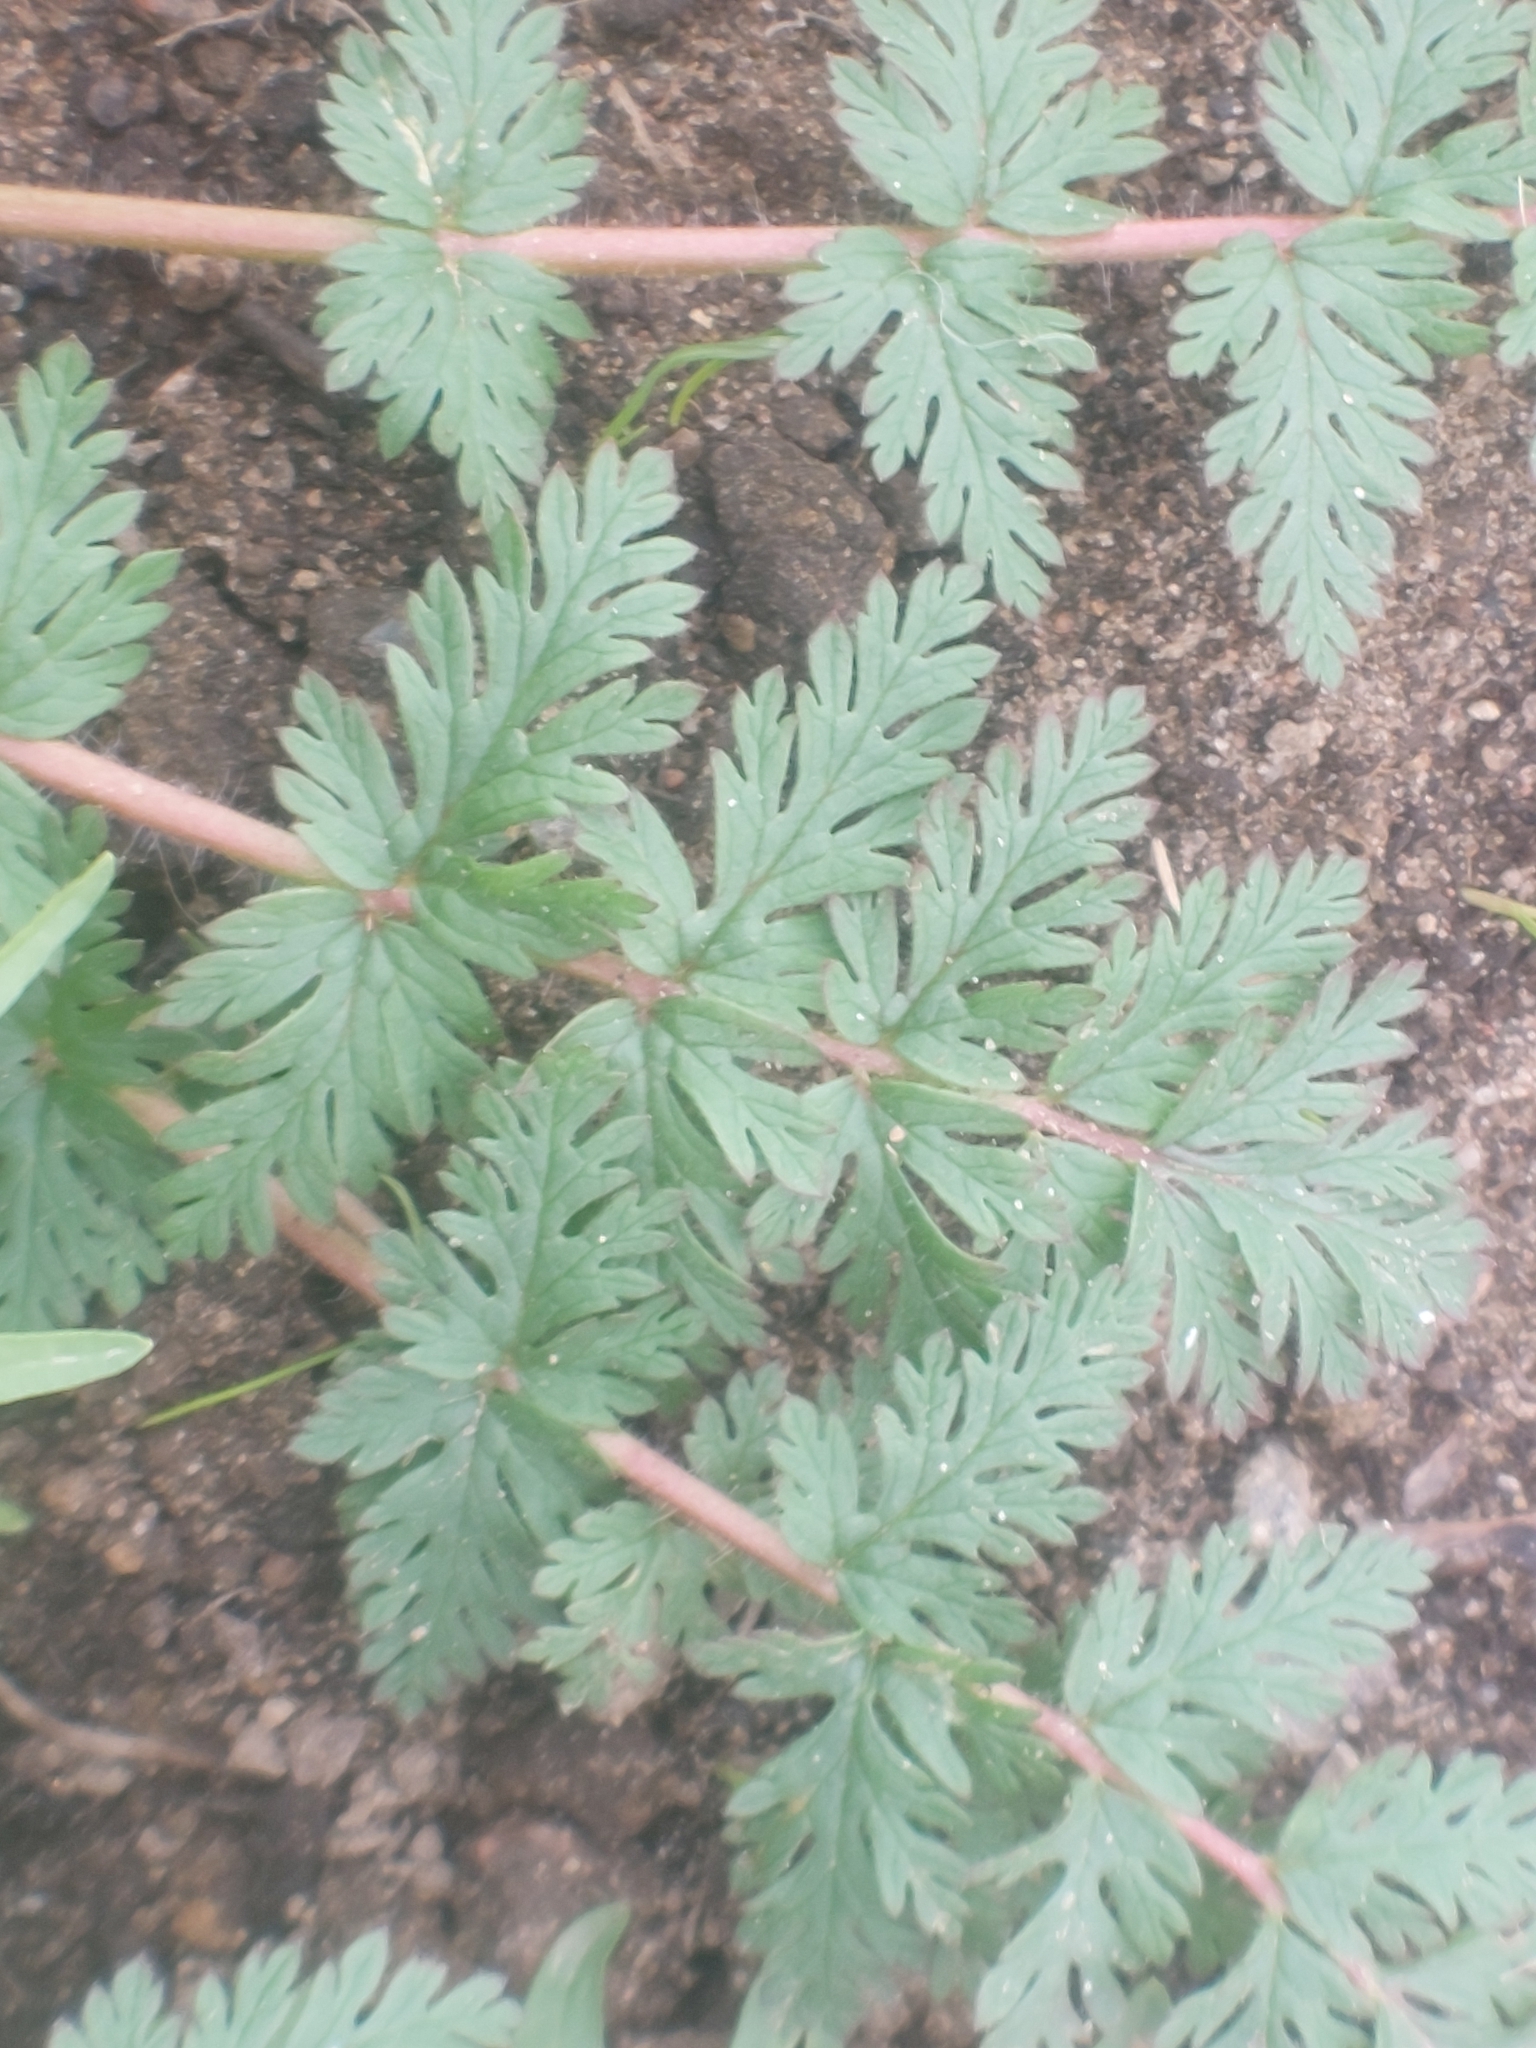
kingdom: Plantae
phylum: Tracheophyta
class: Magnoliopsida
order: Geraniales
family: Geraniaceae
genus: Erodium
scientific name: Erodium cicutarium
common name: Common stork's-bill
